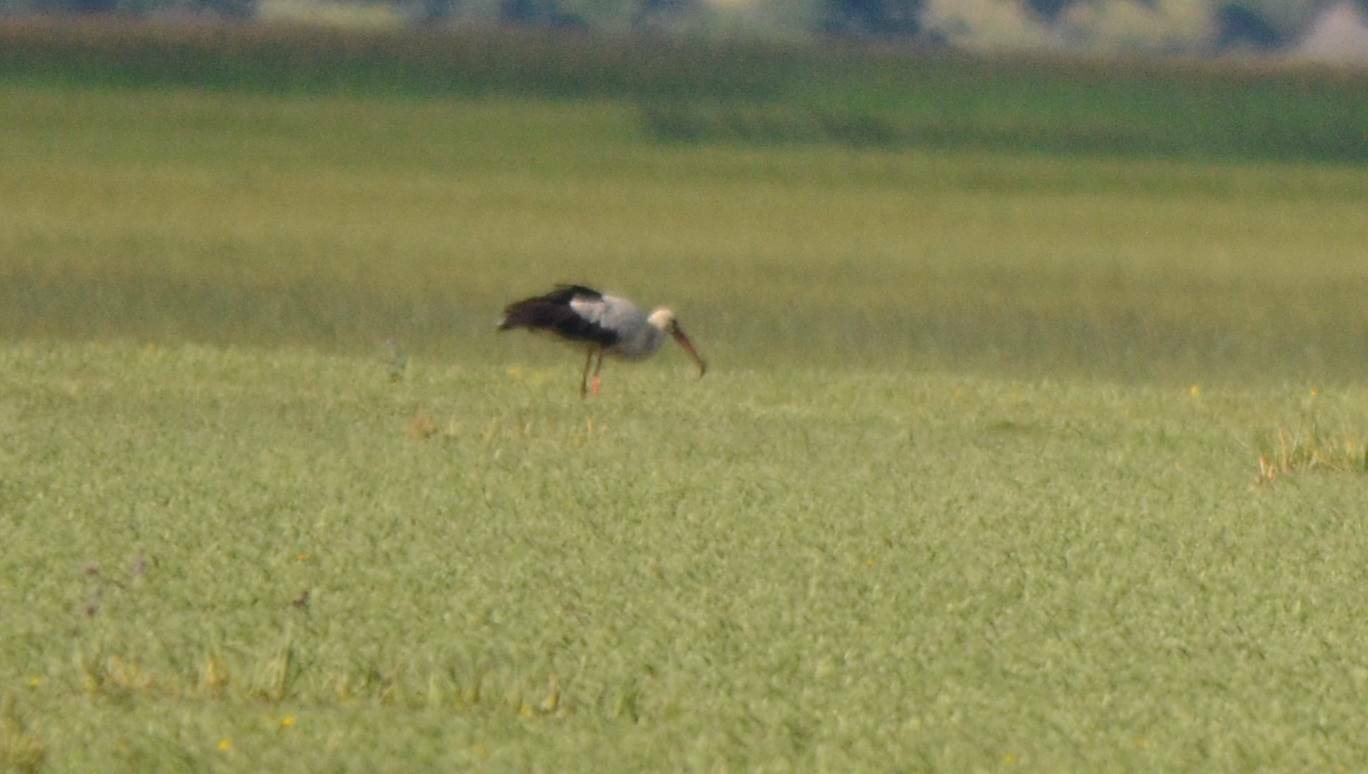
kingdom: Animalia
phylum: Chordata
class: Aves
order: Ciconiiformes
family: Ciconiidae
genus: Ciconia
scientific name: Ciconia ciconia
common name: White stork
